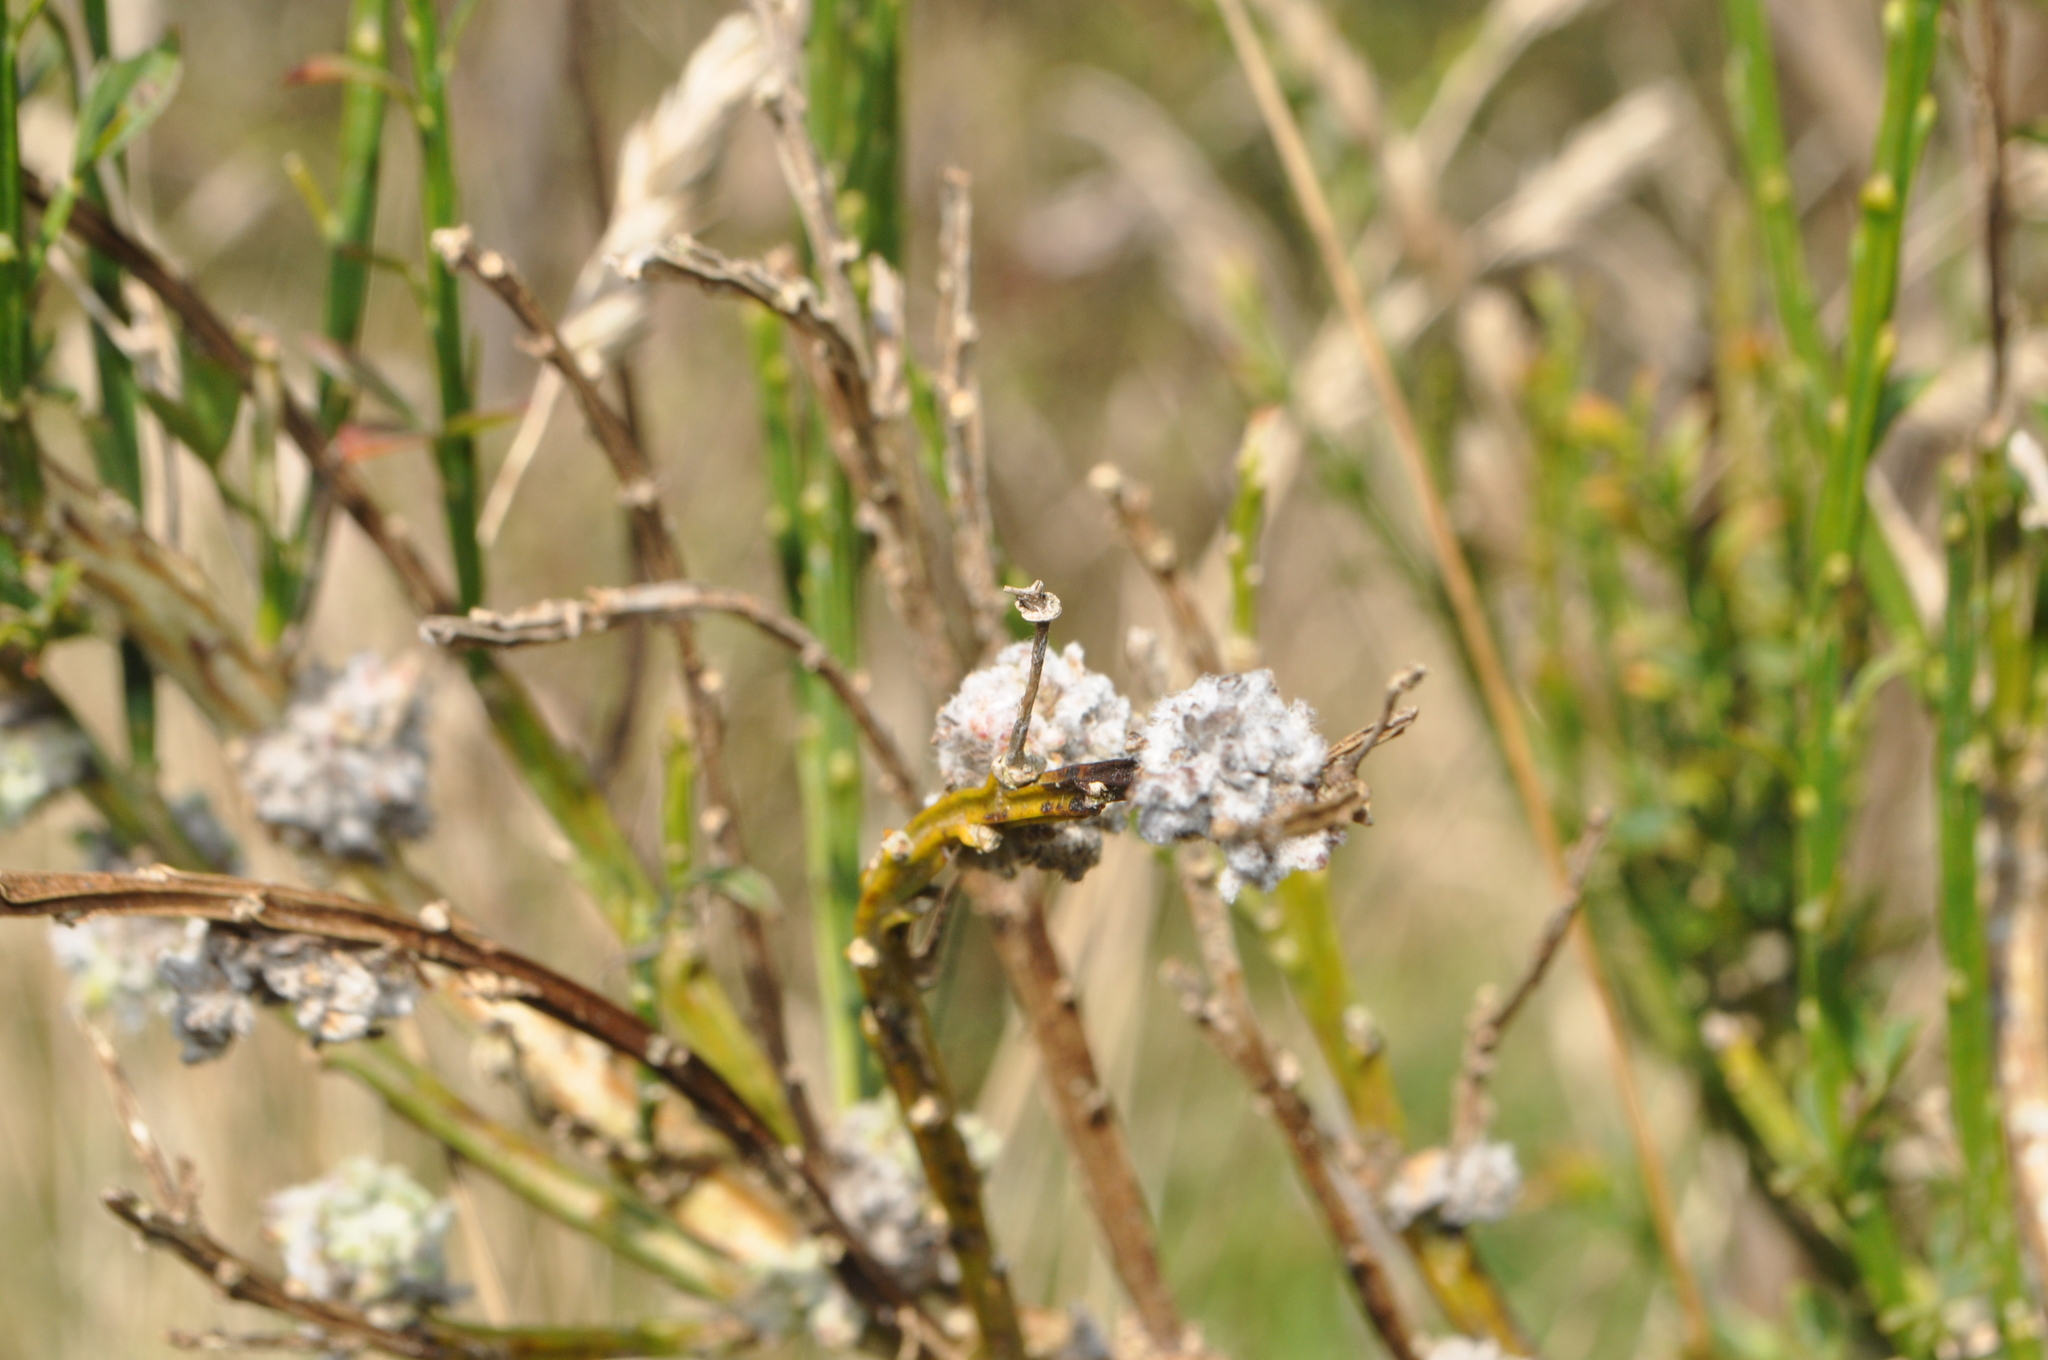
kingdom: Animalia
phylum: Arthropoda
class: Arachnida
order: Trombidiformes
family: Eriophyidae
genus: Aceria
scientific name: Aceria genistae
